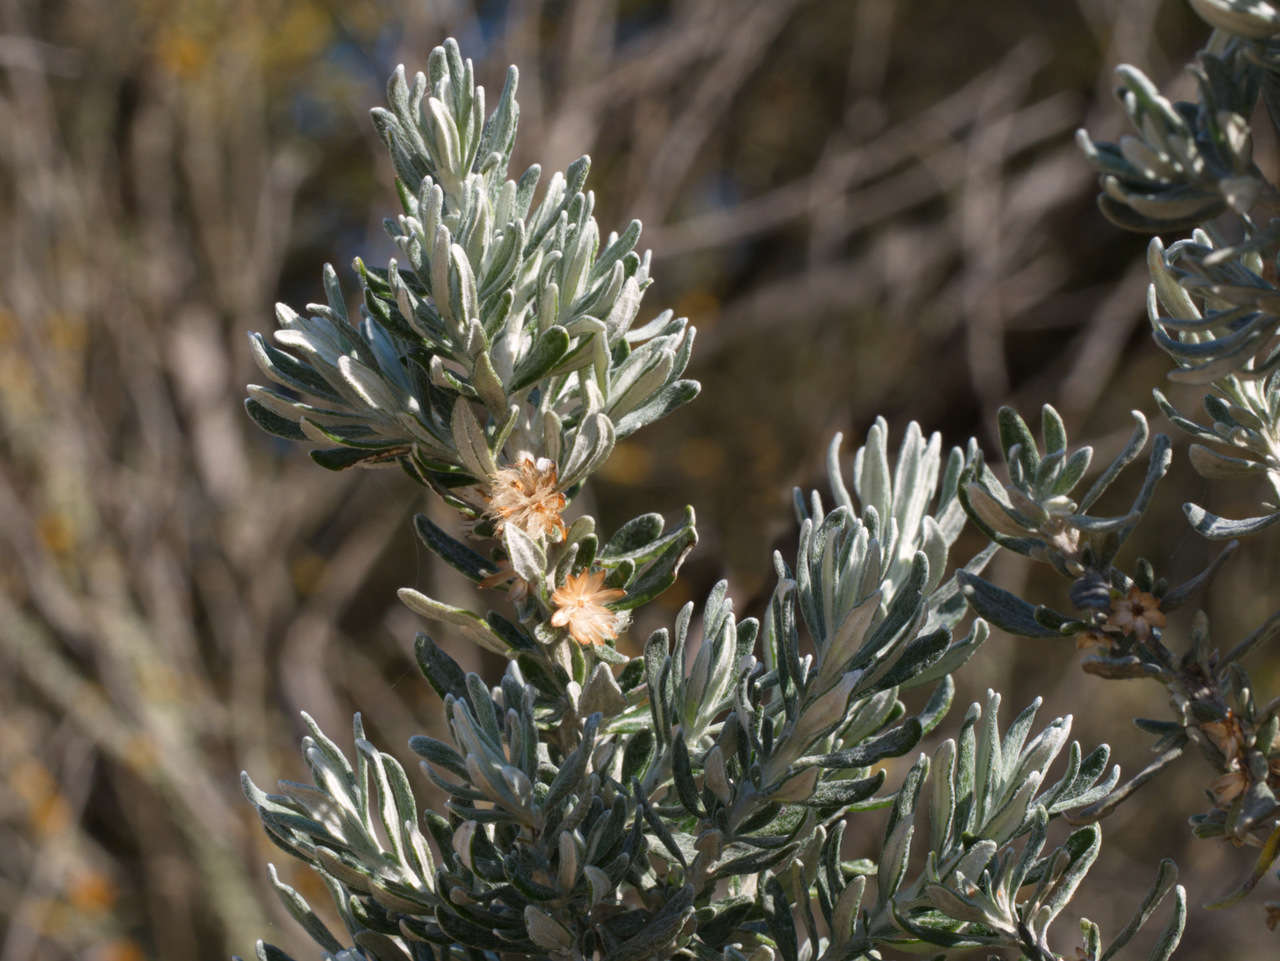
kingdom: Plantae
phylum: Tracheophyta
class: Magnoliopsida
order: Asterales
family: Asteraceae
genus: Olearia
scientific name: Olearia axillaris
